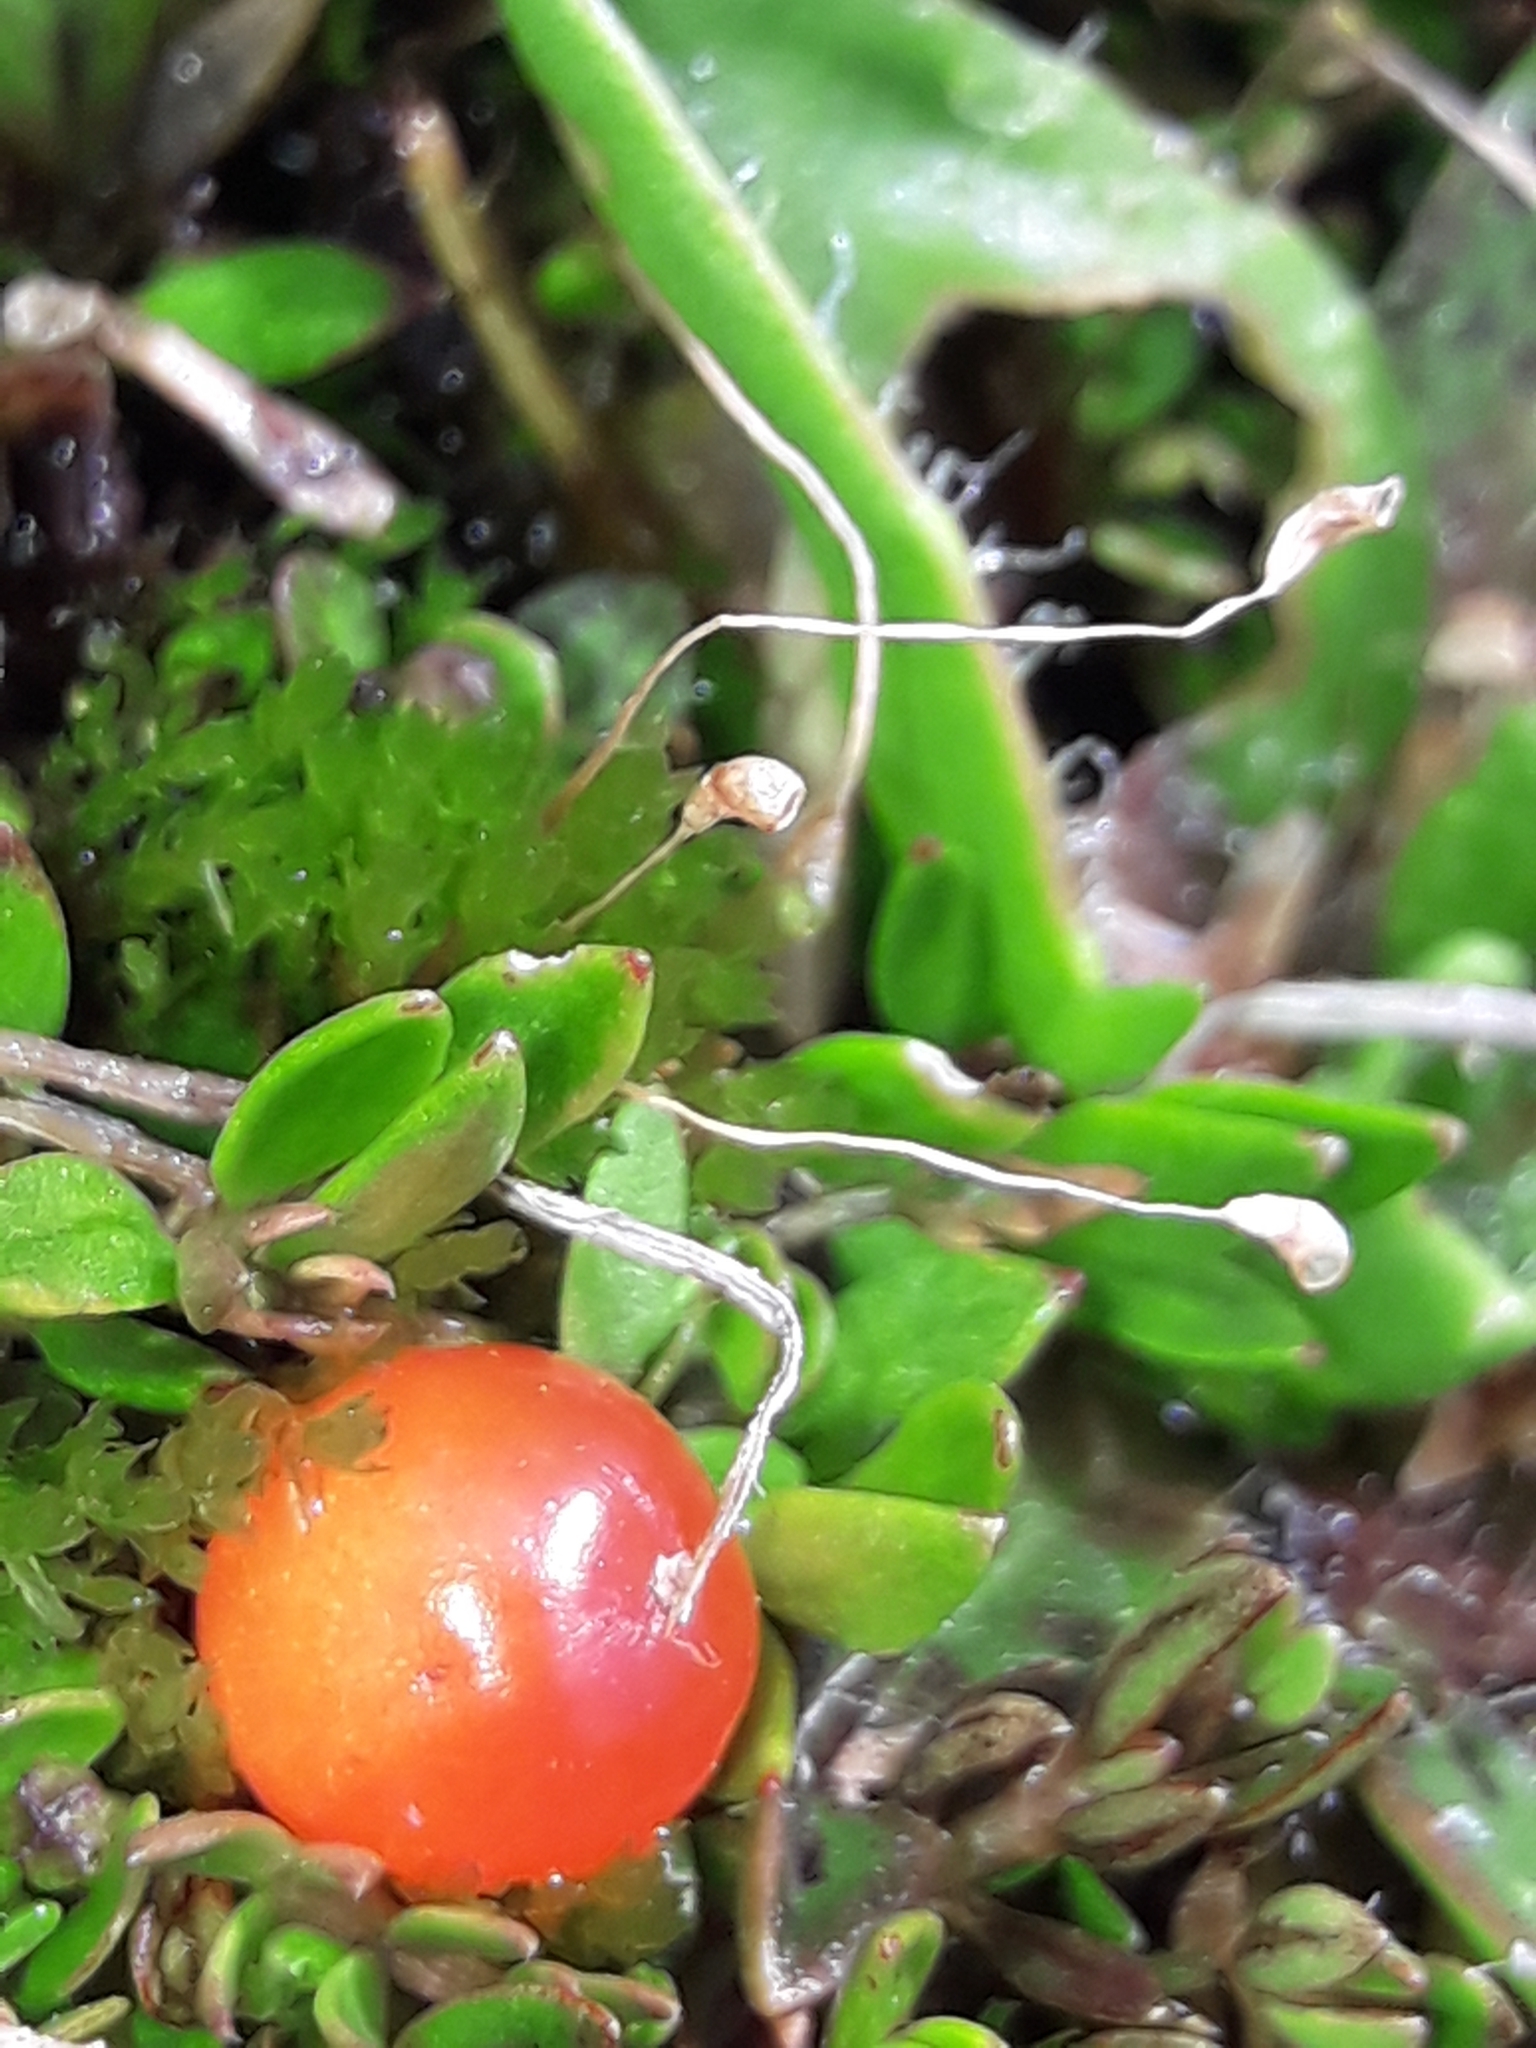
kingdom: Plantae
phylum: Tracheophyta
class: Magnoliopsida
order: Gentianales
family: Rubiaceae
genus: Nertera
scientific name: Nertera balfouriana
